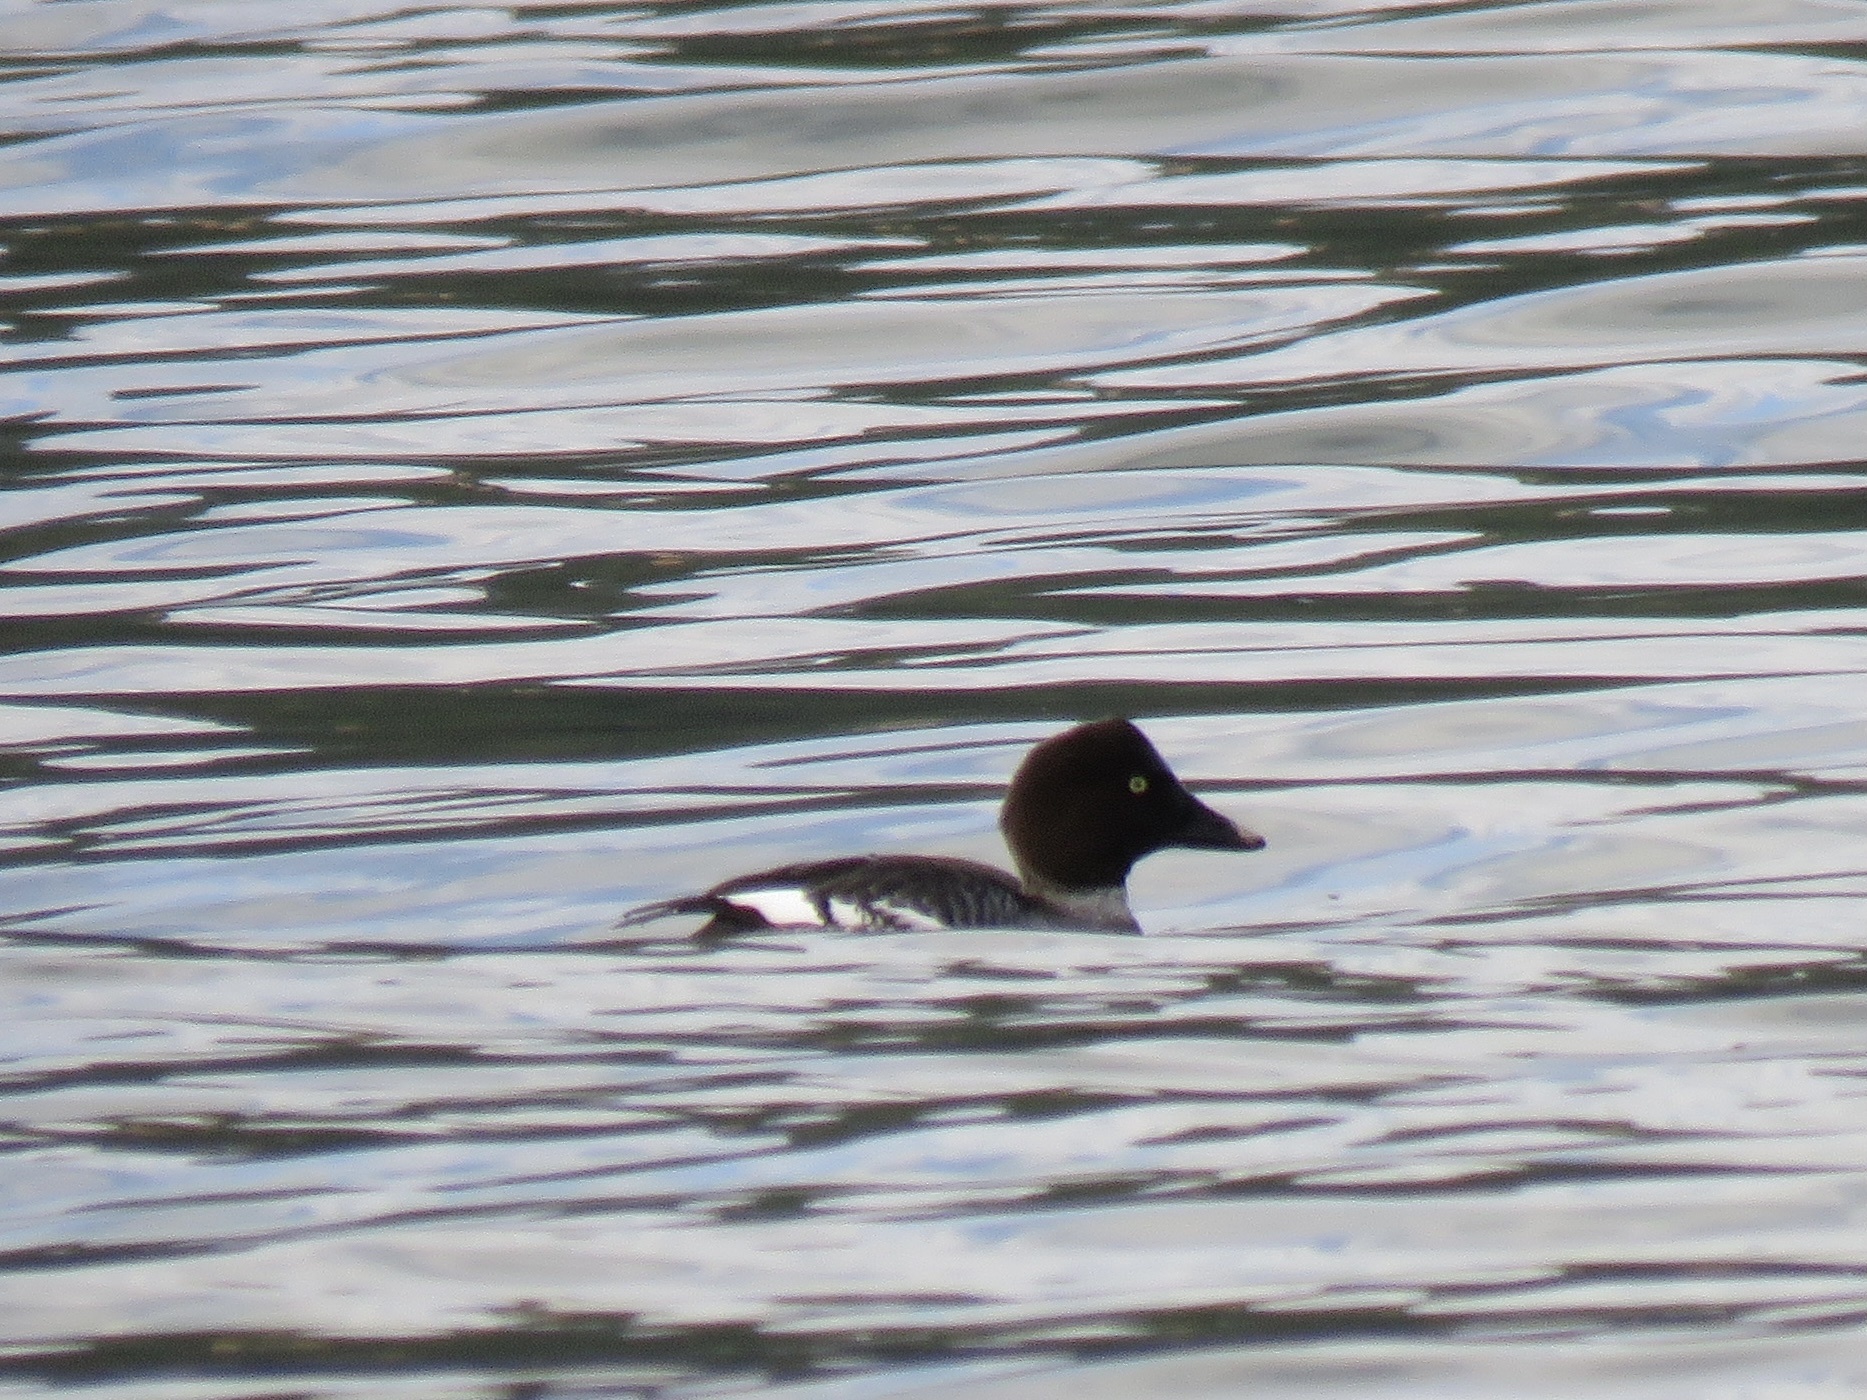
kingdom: Animalia
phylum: Chordata
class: Aves
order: Anseriformes
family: Anatidae
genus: Bucephala
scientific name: Bucephala islandica
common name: Barrow's goldeneye
